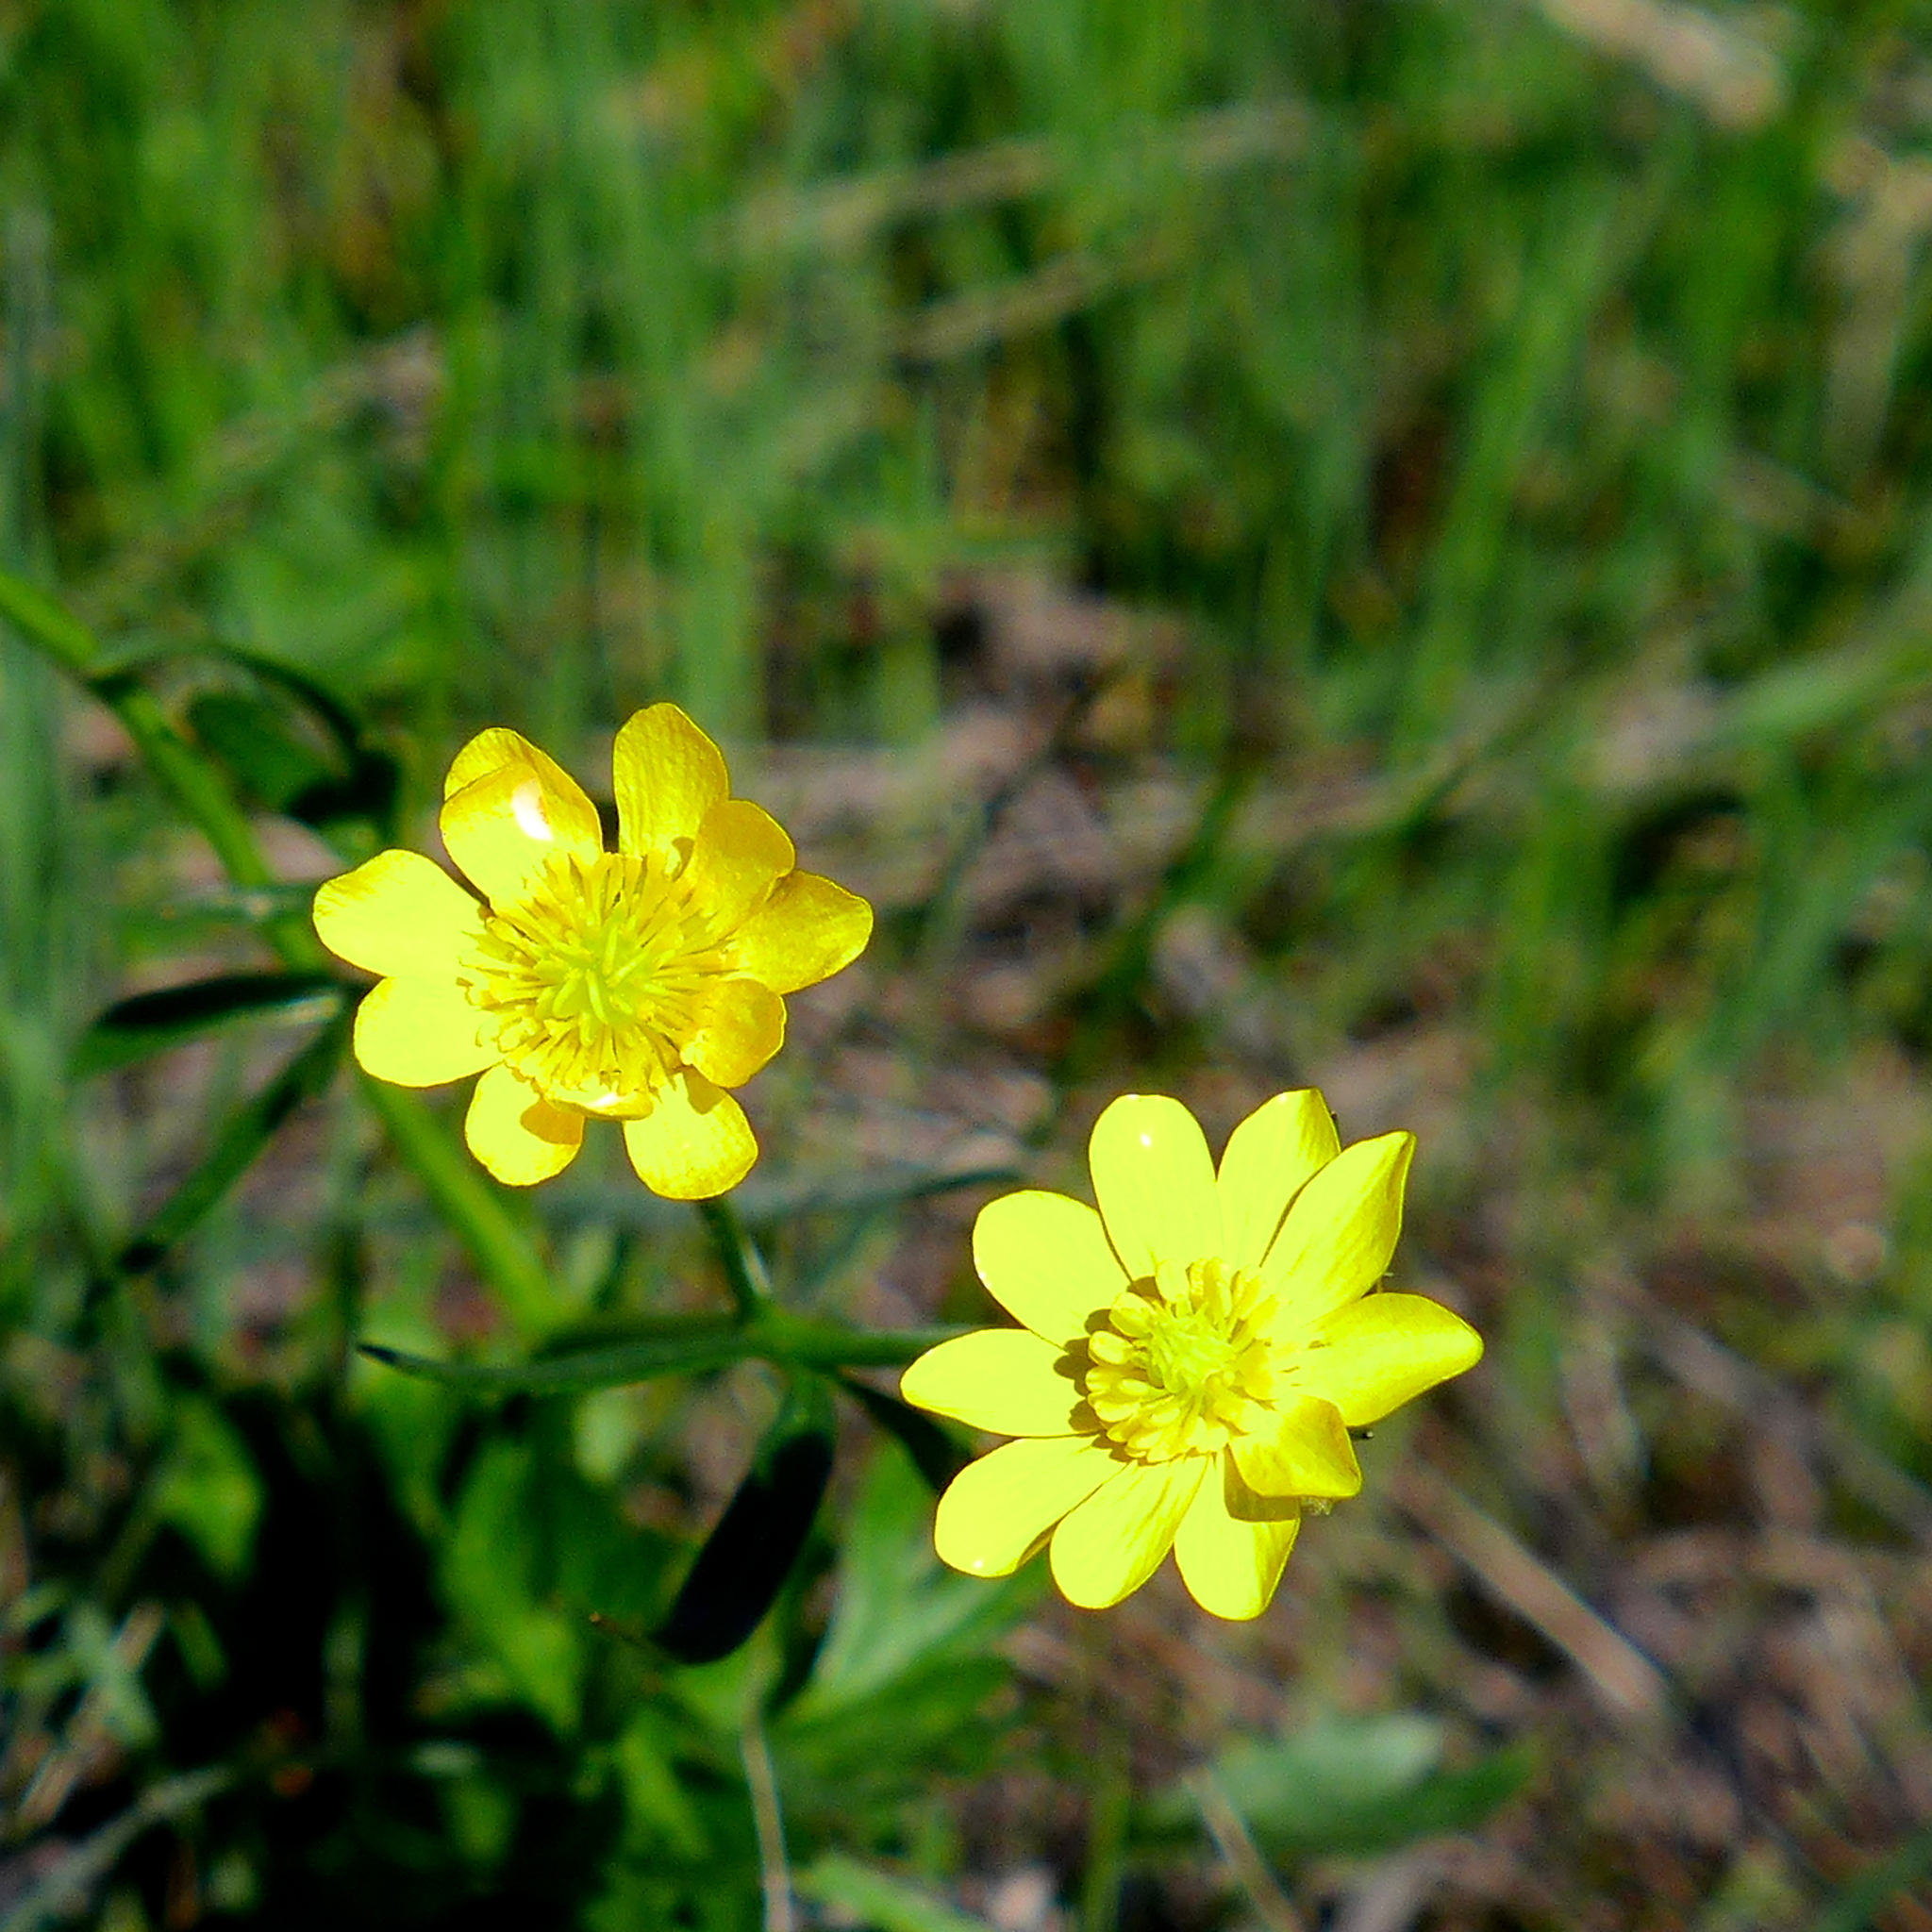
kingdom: Plantae
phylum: Tracheophyta
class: Magnoliopsida
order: Ranunculales
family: Ranunculaceae
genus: Ranunculus
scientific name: Ranunculus californicus
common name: California buttercup
